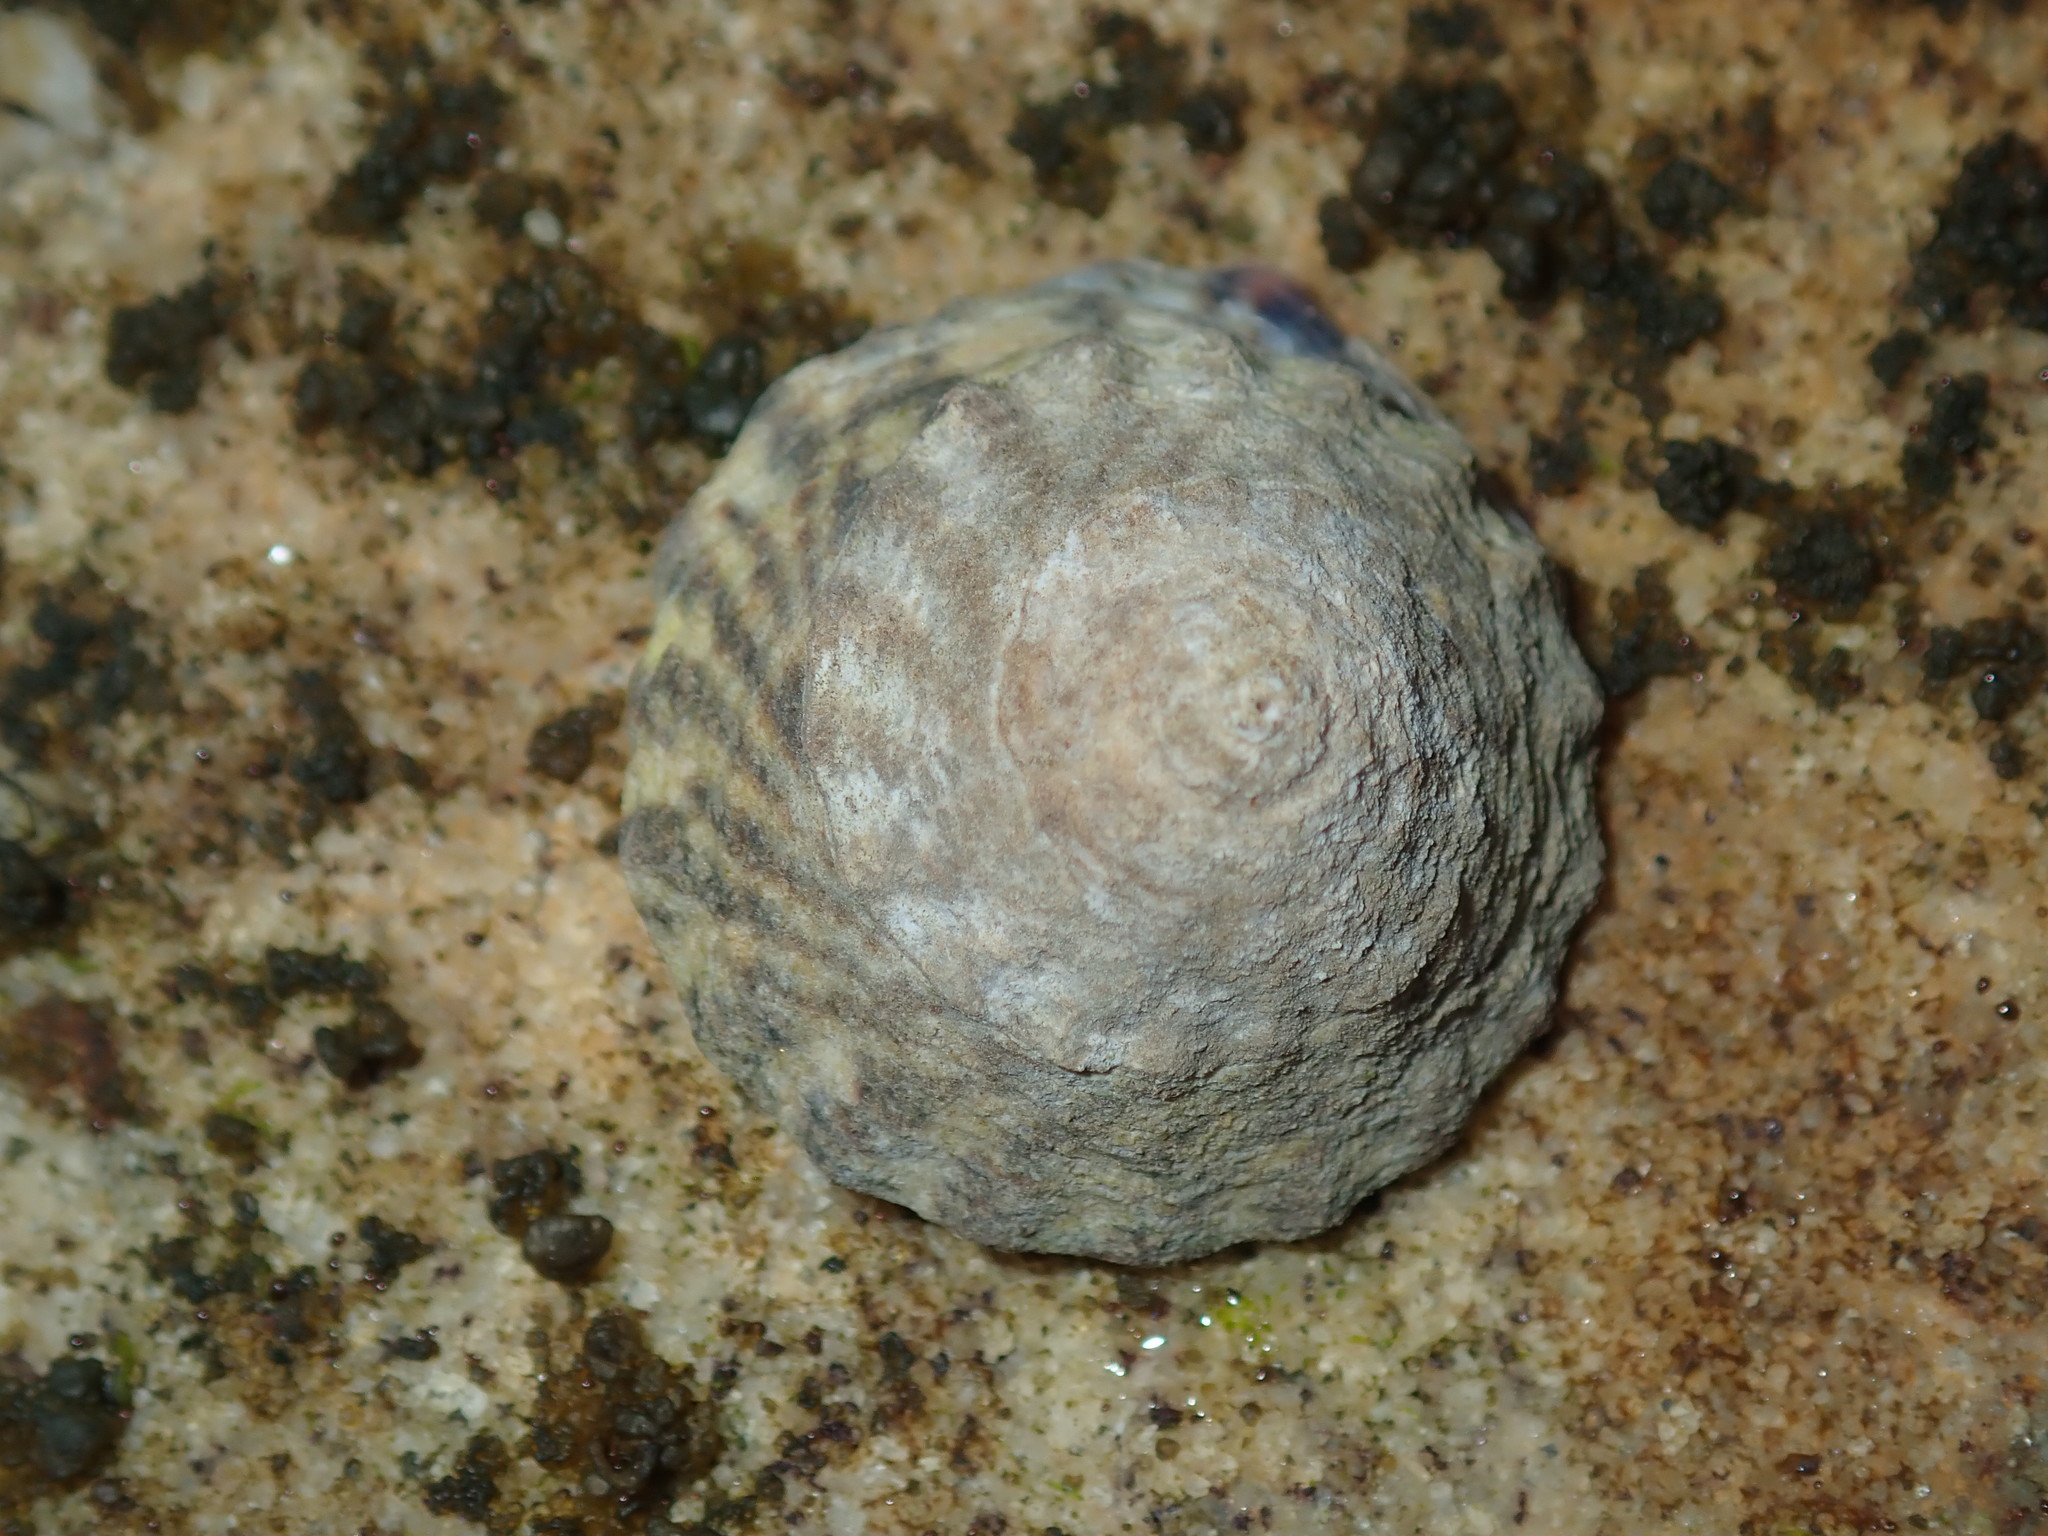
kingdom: Animalia
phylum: Mollusca
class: Gastropoda
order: Littorinimorpha
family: Littorinidae
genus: Bembicium
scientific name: Bembicium nanum
